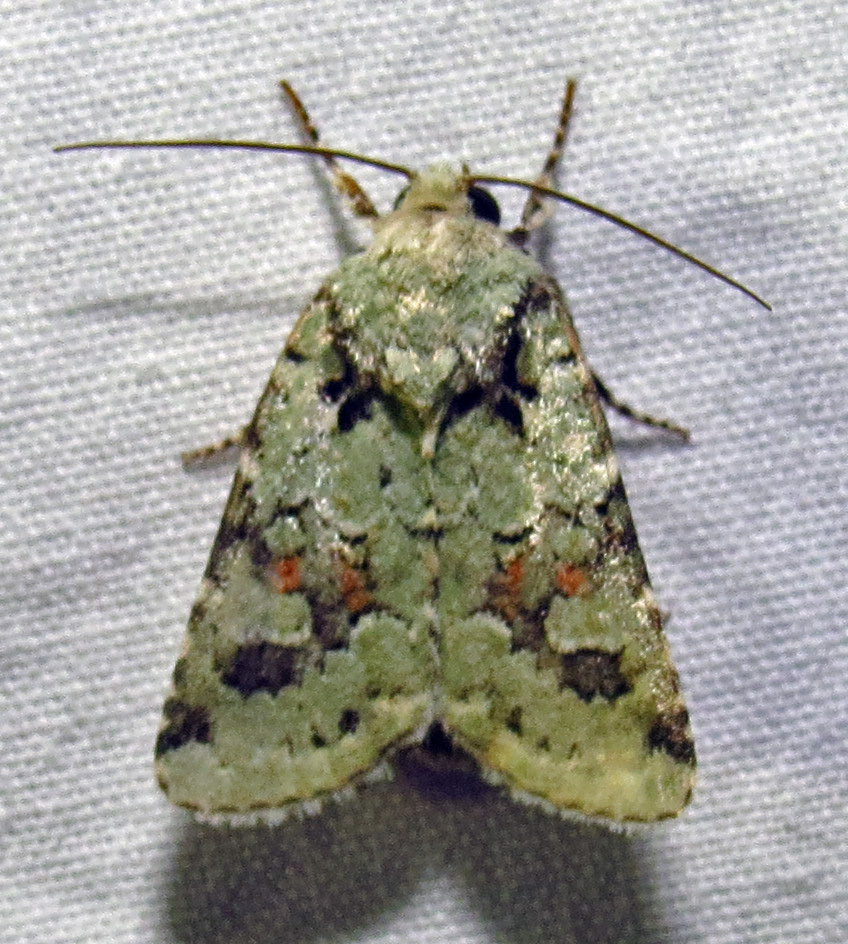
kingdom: Animalia
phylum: Arthropoda
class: Insecta
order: Lepidoptera
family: Noctuidae
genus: Lacinipolia
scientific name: Lacinipolia laudabilis
